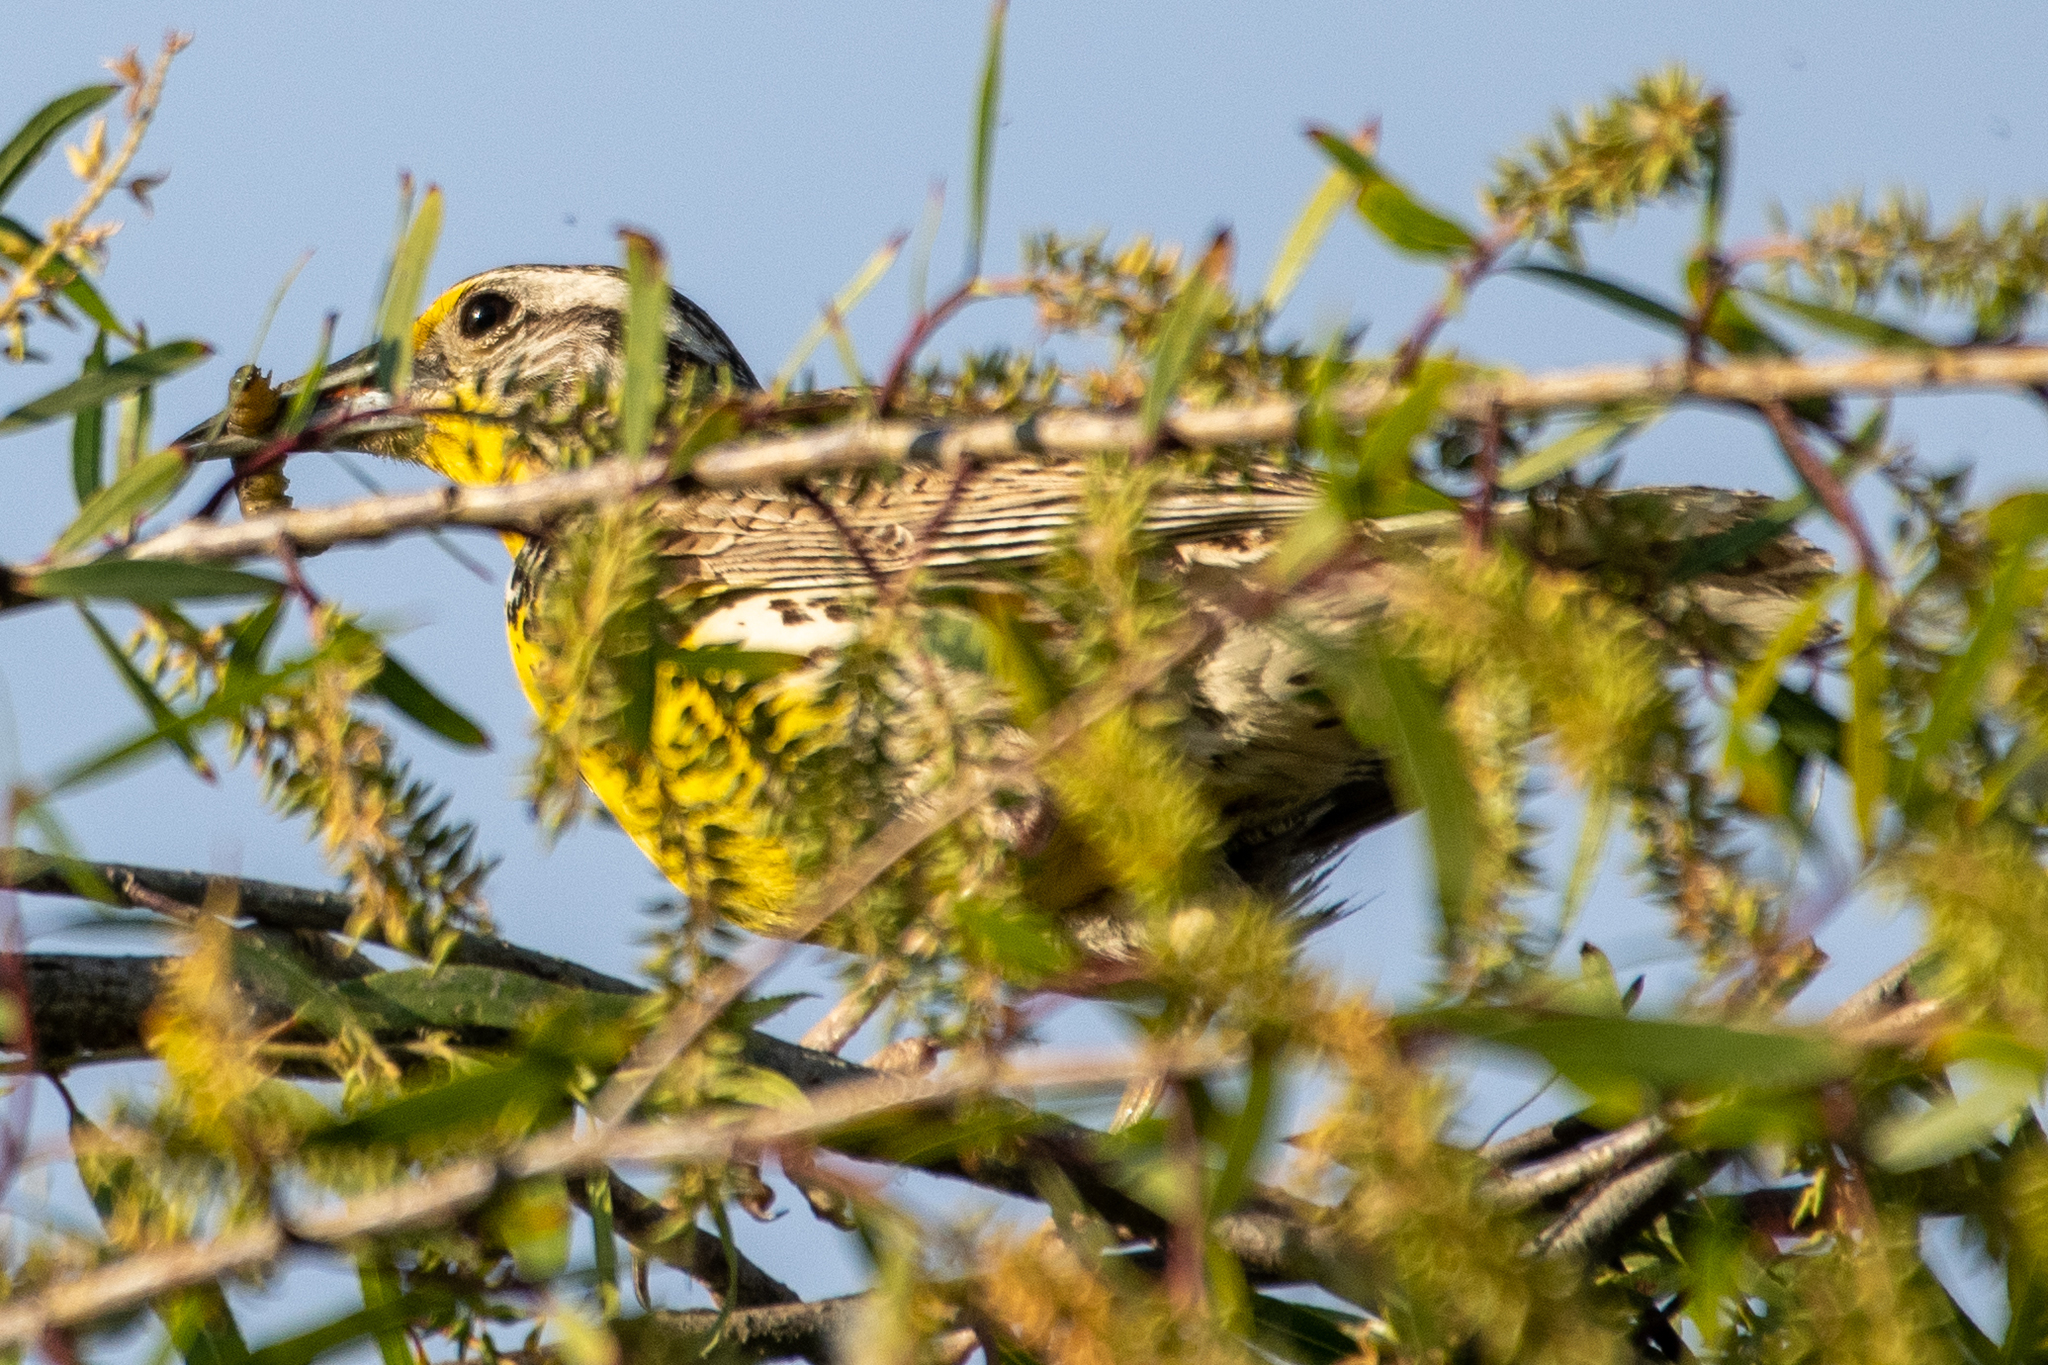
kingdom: Animalia
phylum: Chordata
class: Aves
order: Passeriformes
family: Icteridae
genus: Sturnella
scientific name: Sturnella neglecta
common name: Western meadowlark
